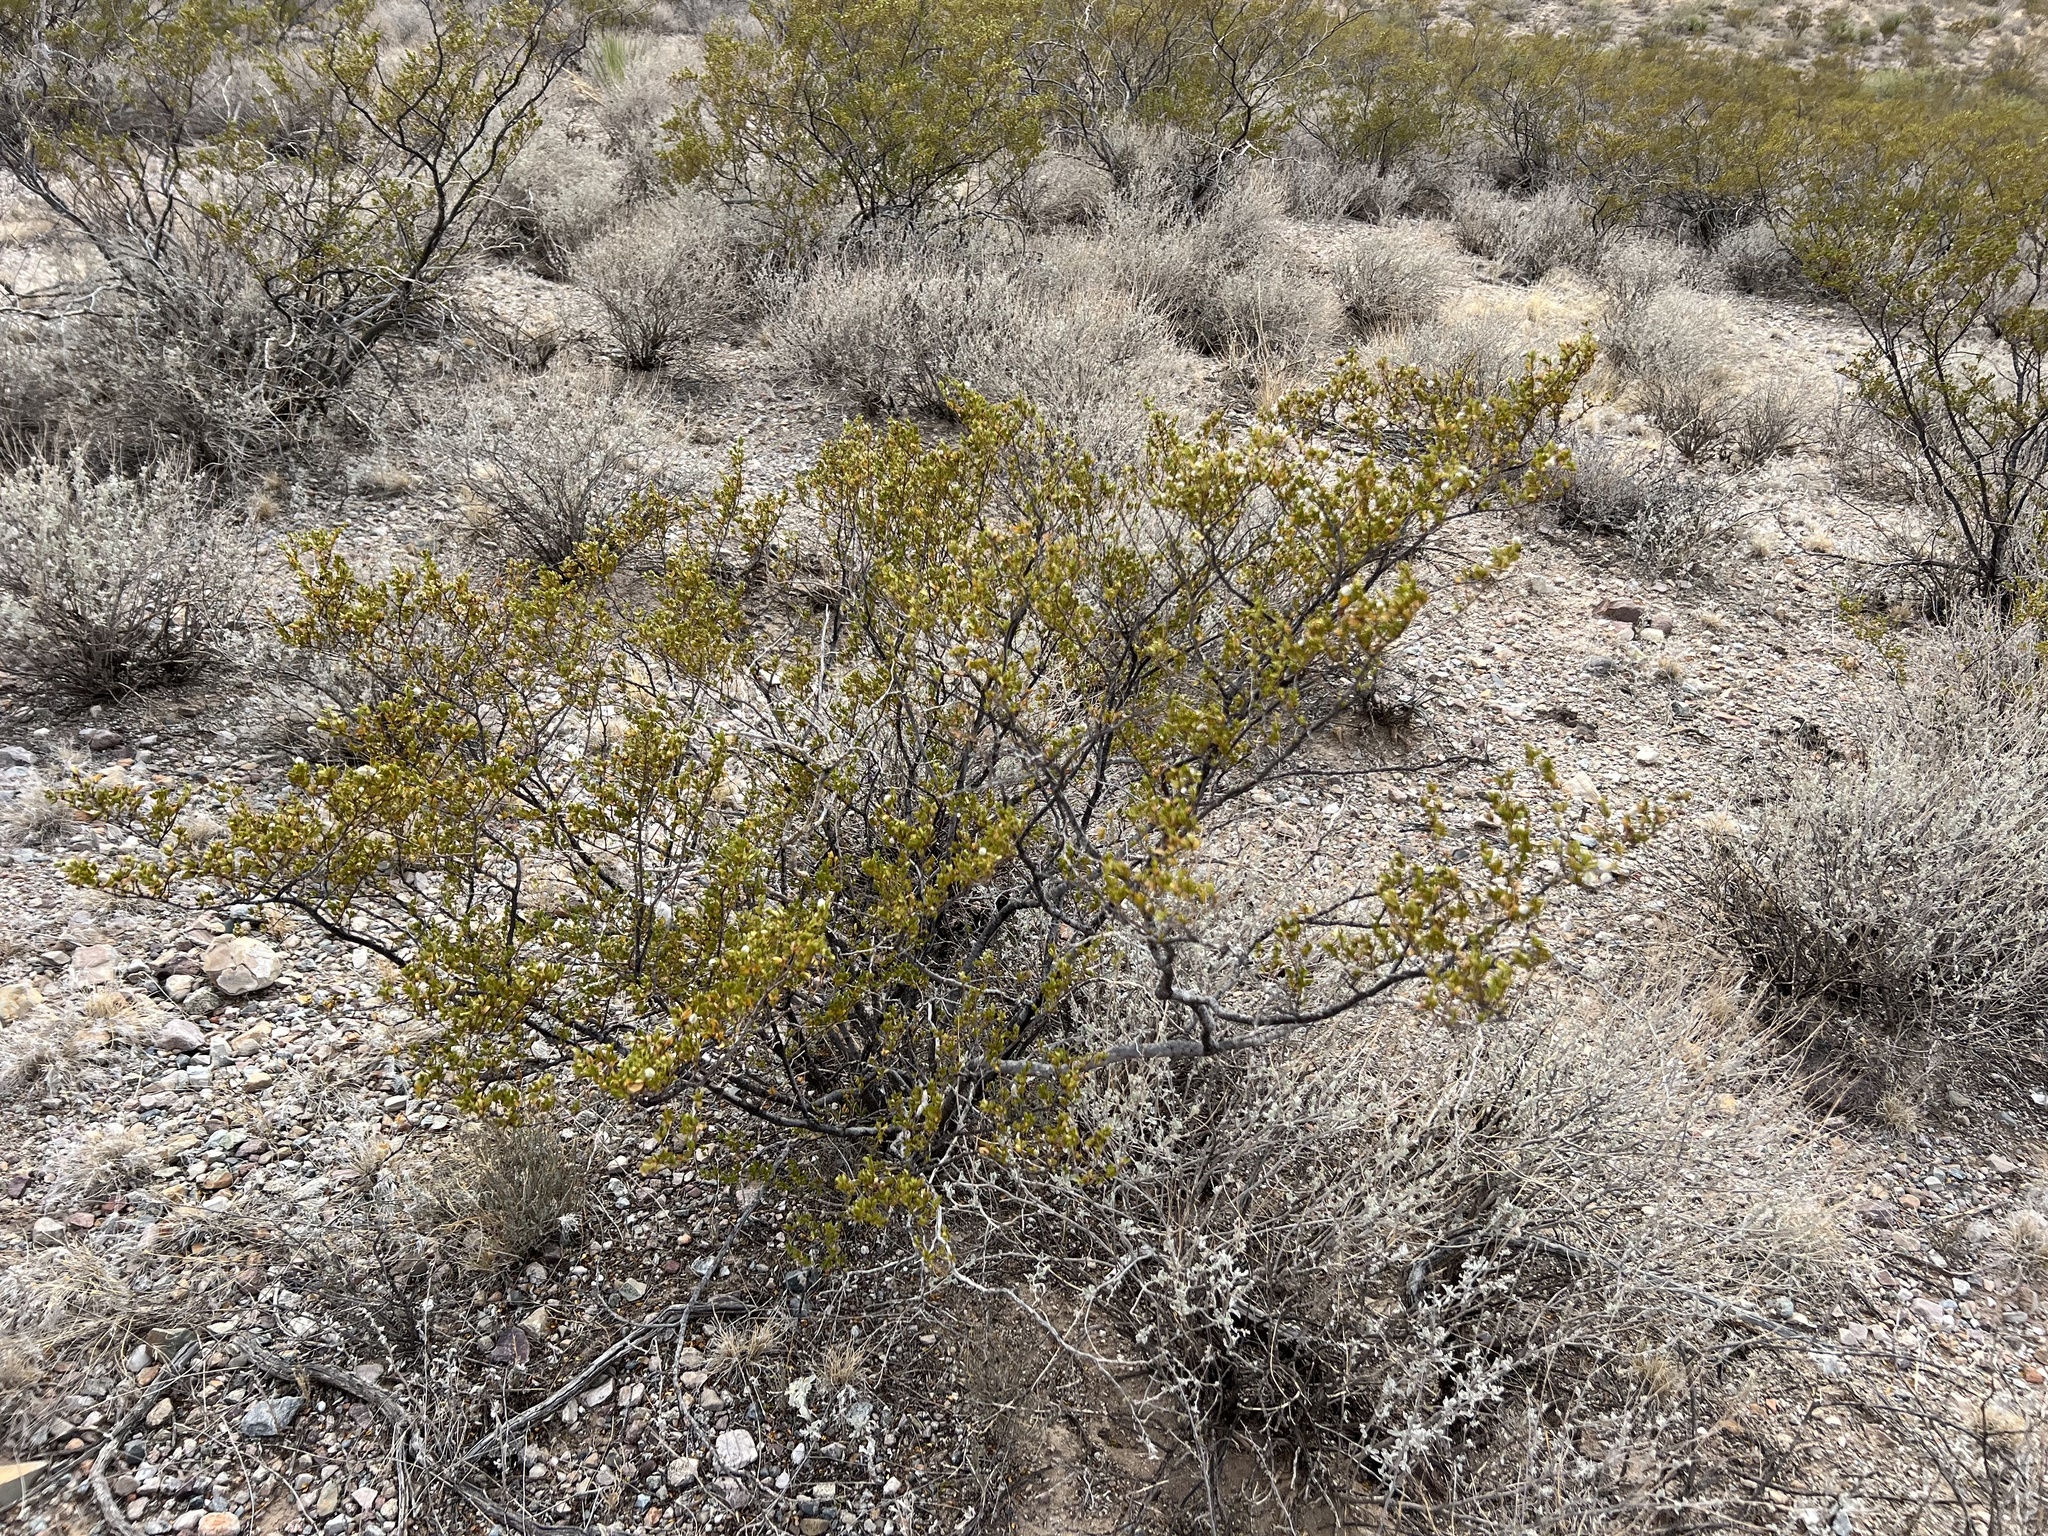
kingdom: Plantae
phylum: Tracheophyta
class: Magnoliopsida
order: Zygophyllales
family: Zygophyllaceae
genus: Larrea
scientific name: Larrea tridentata
